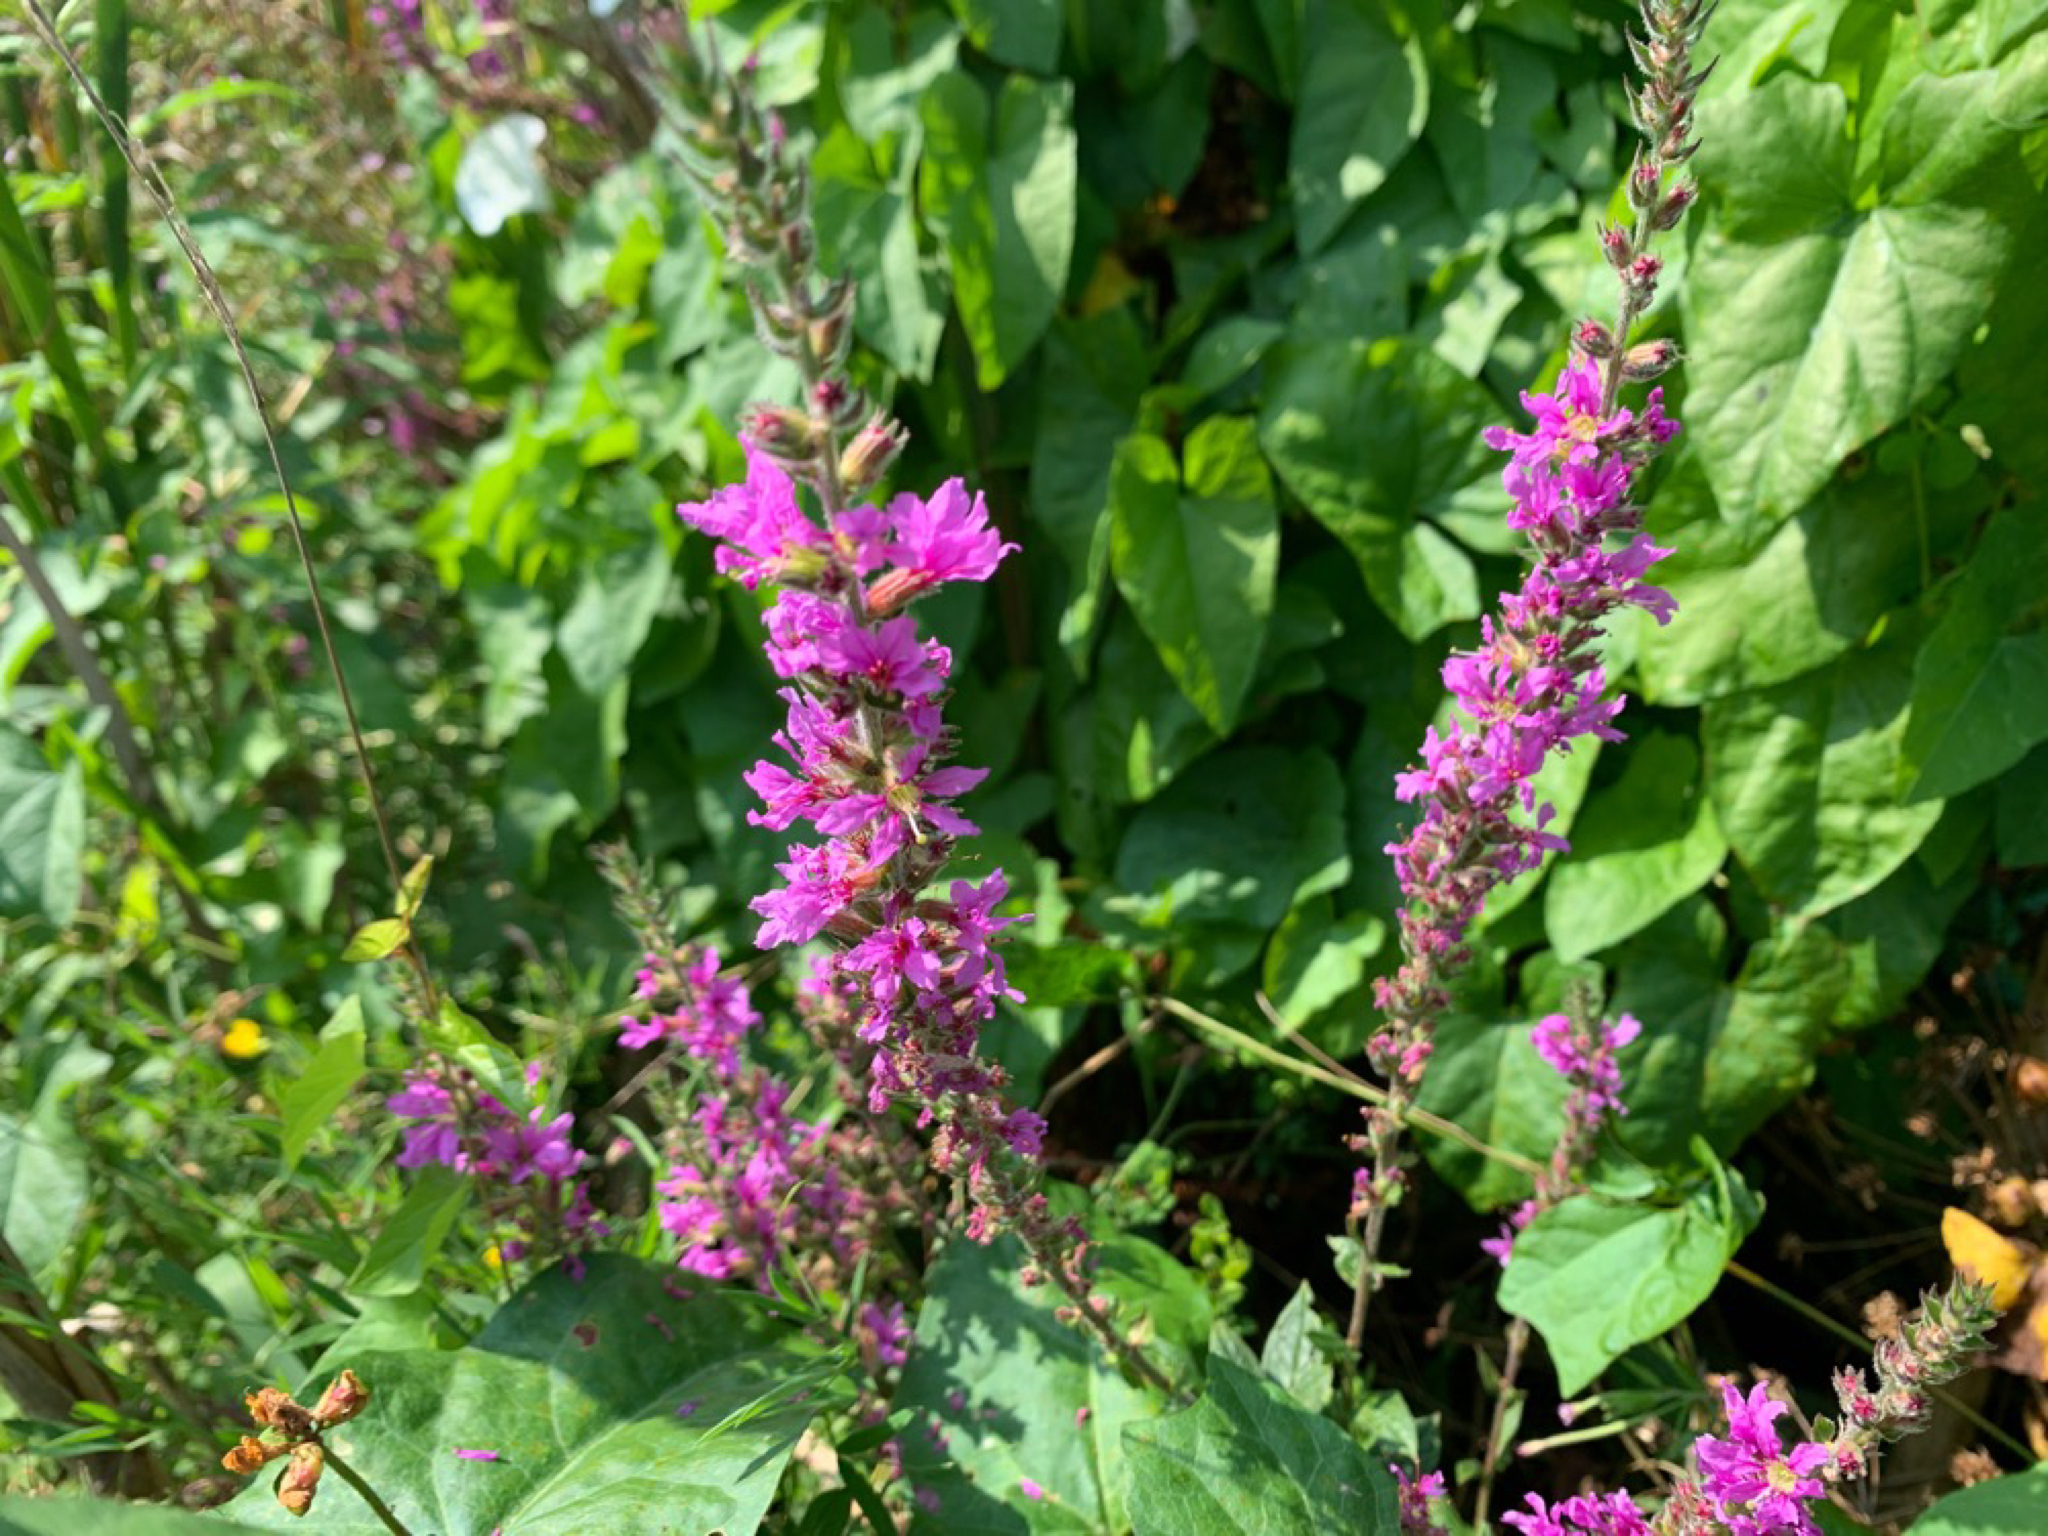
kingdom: Plantae
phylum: Tracheophyta
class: Magnoliopsida
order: Myrtales
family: Lythraceae
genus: Lythrum
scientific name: Lythrum salicaria
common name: Purple loosestrife
